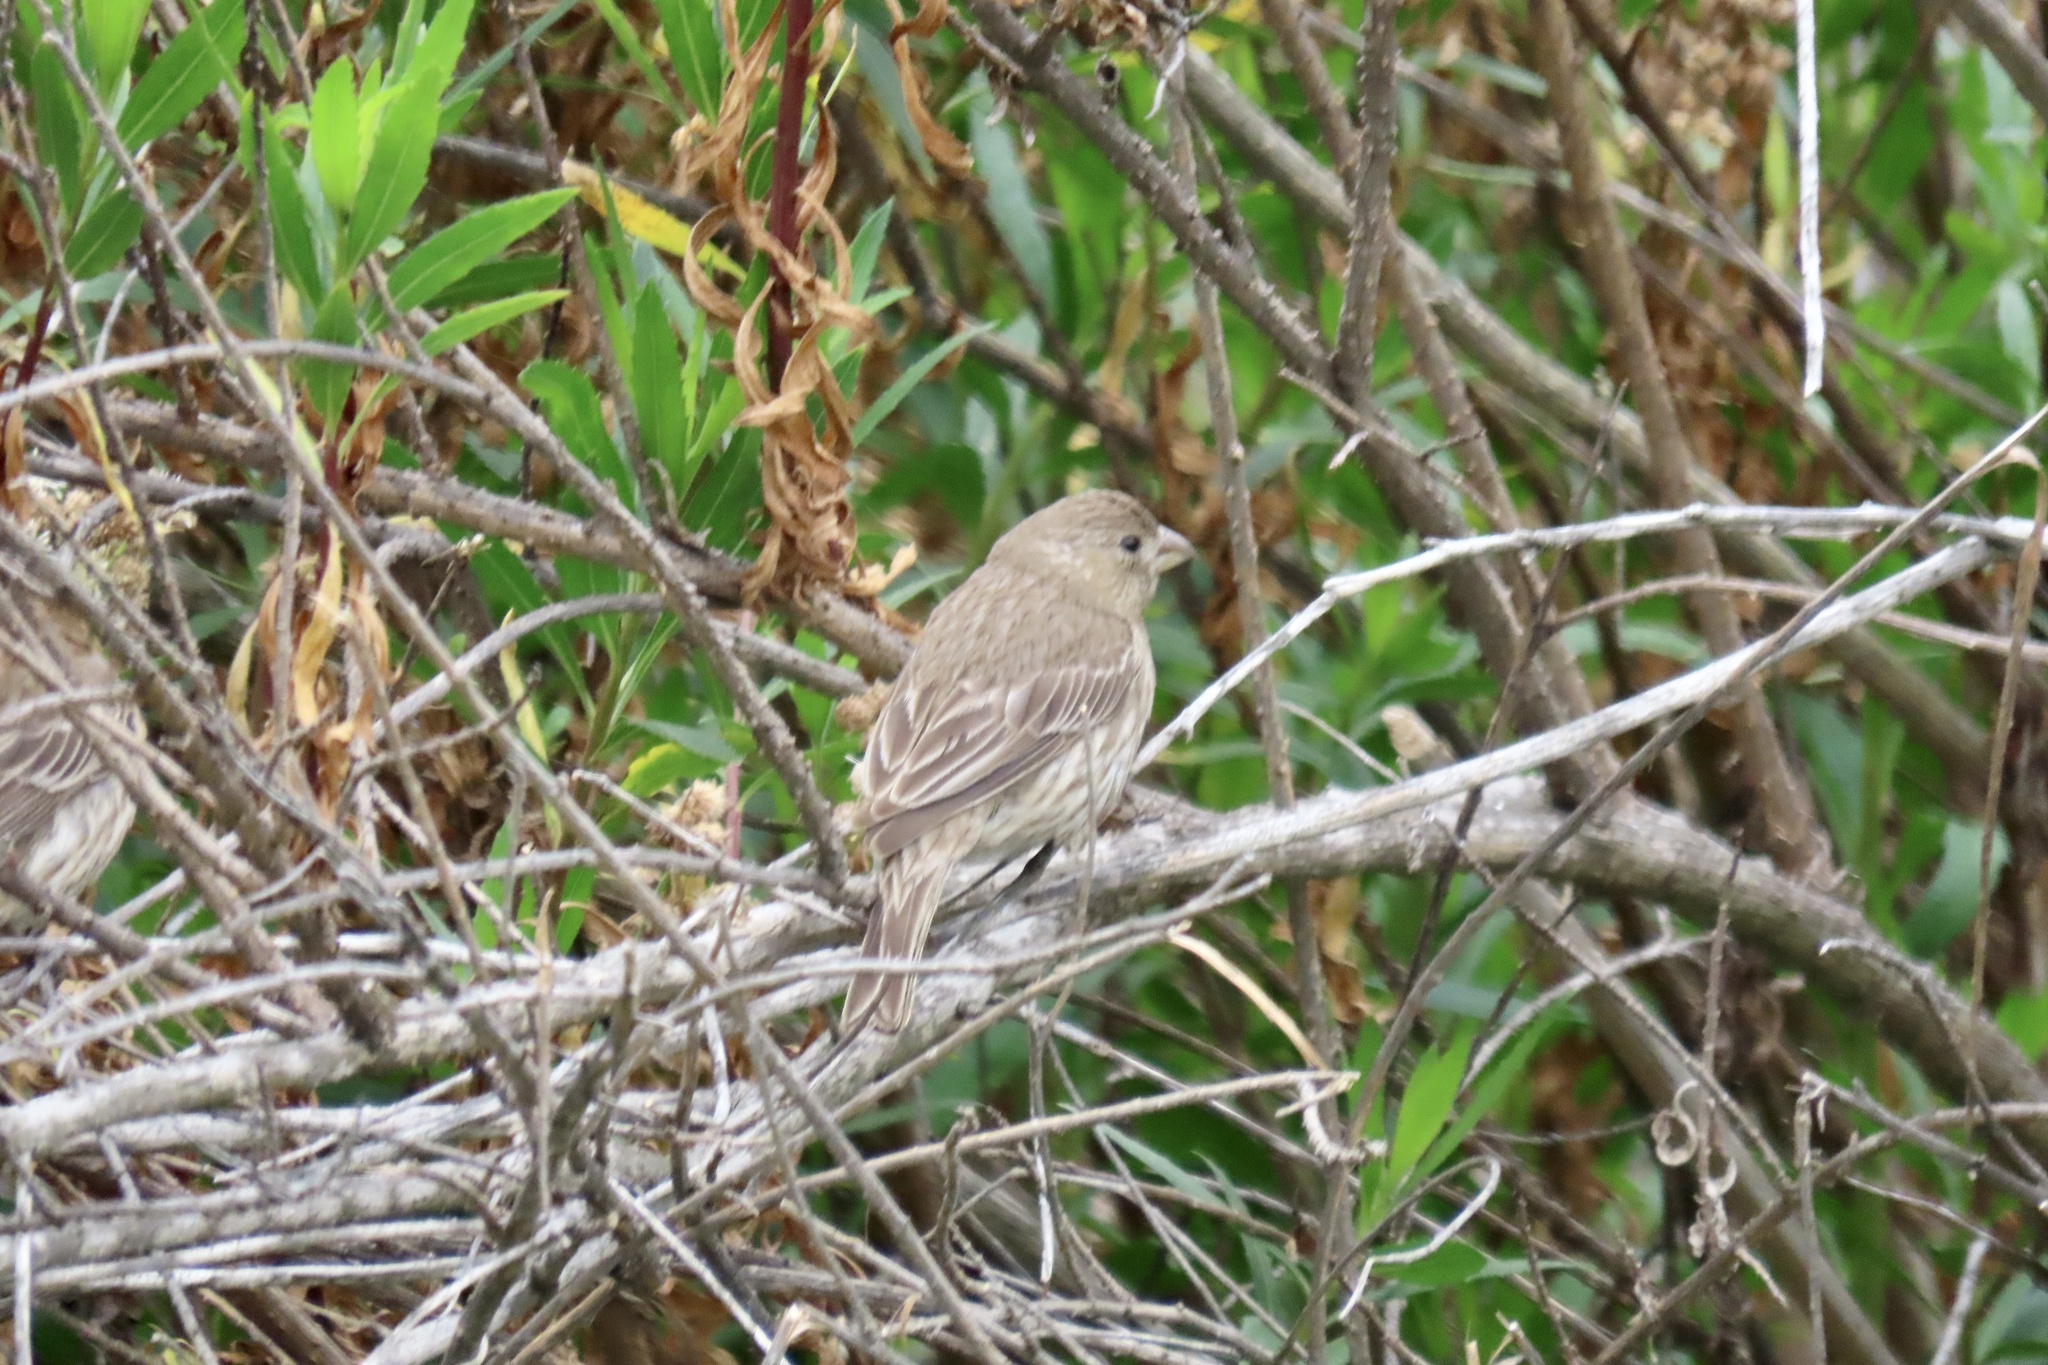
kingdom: Animalia
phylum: Chordata
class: Aves
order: Passeriformes
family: Fringillidae
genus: Haemorhous
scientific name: Haemorhous mexicanus
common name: House finch
